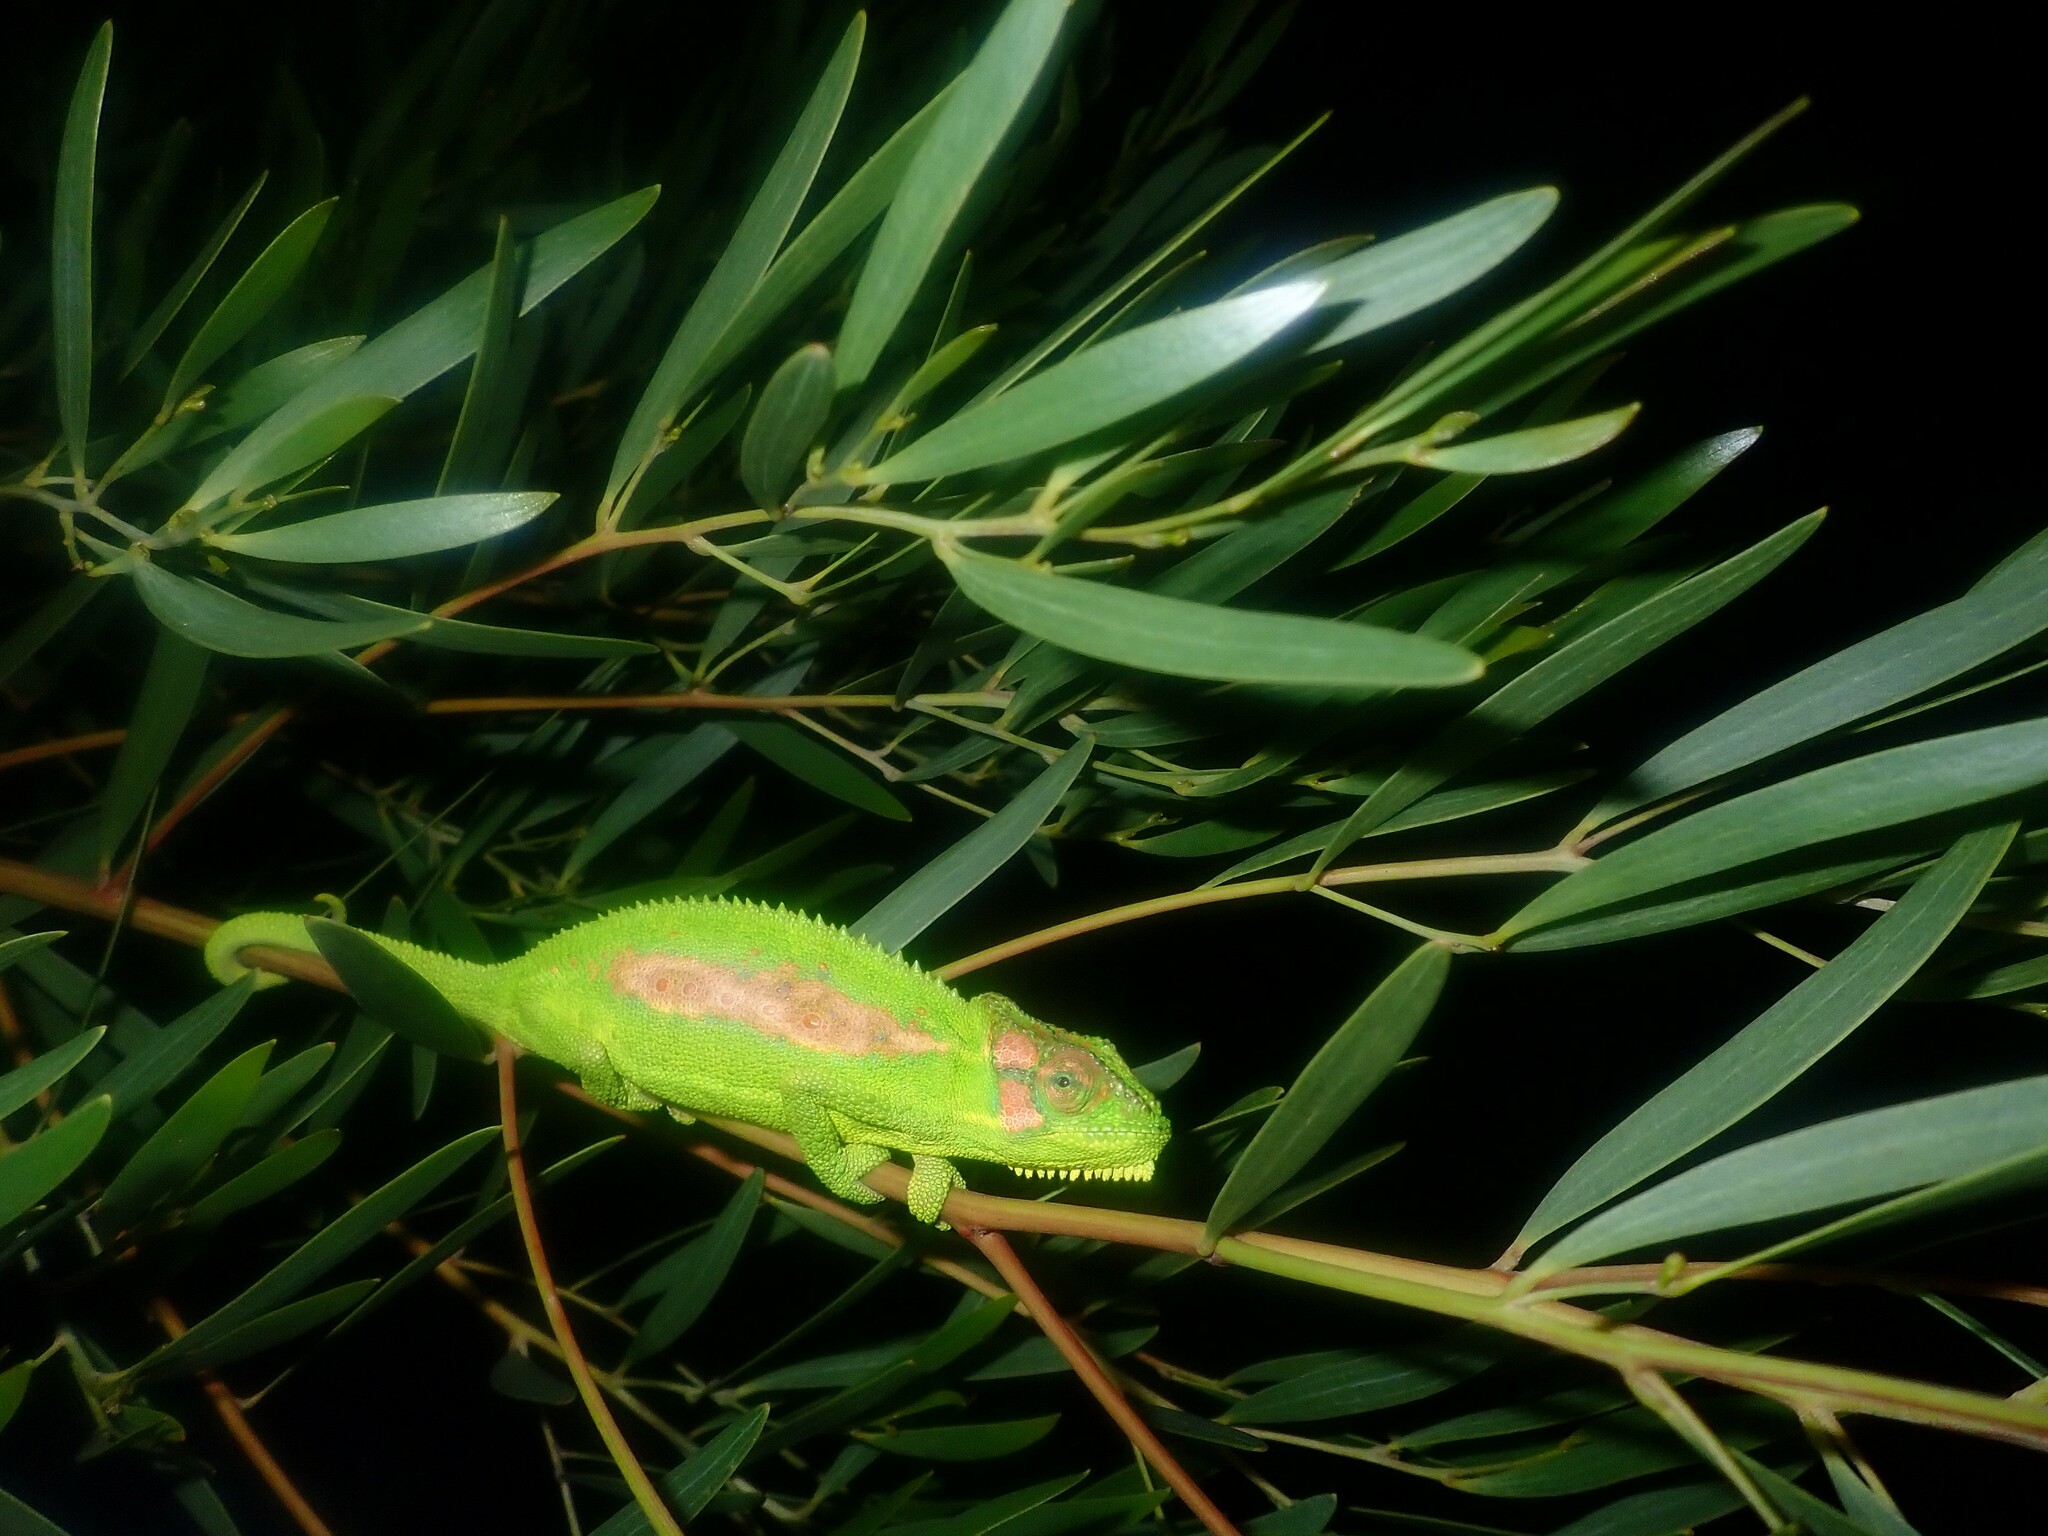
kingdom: Animalia
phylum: Chordata
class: Squamata
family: Chamaeleonidae
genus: Bradypodion
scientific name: Bradypodion pumilum
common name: Cape dwarf chameleon
